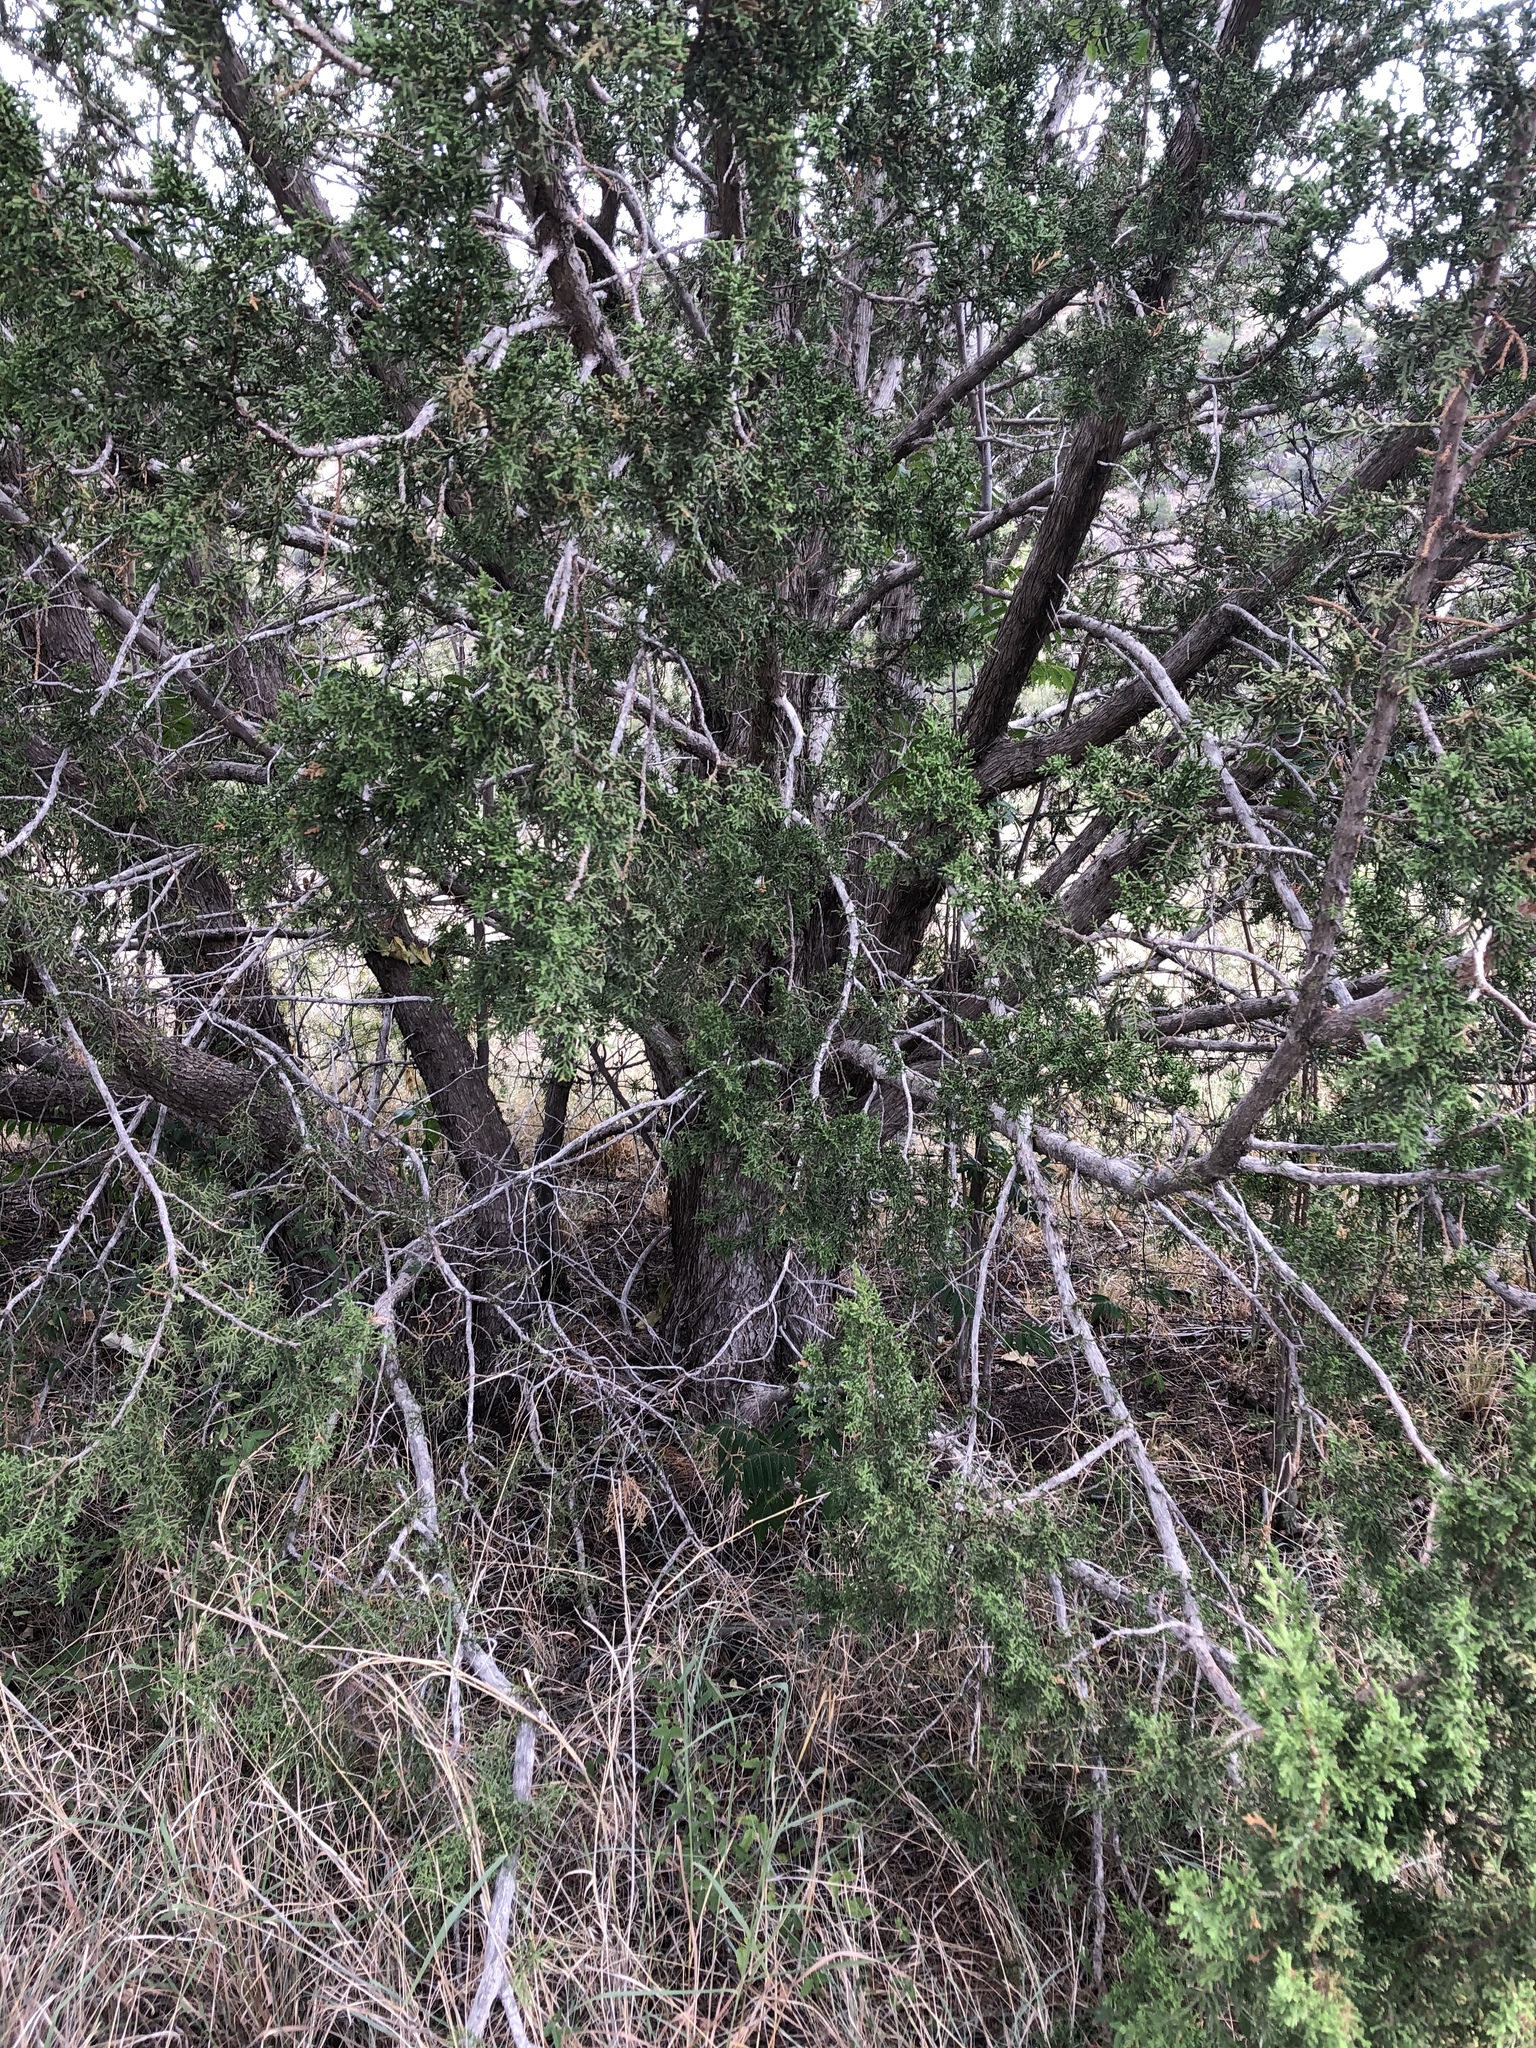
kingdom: Plantae
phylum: Tracheophyta
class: Pinopsida
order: Pinales
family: Cupressaceae
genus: Juniperus
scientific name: Juniperus pinchotii
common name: Pinchot juniper
